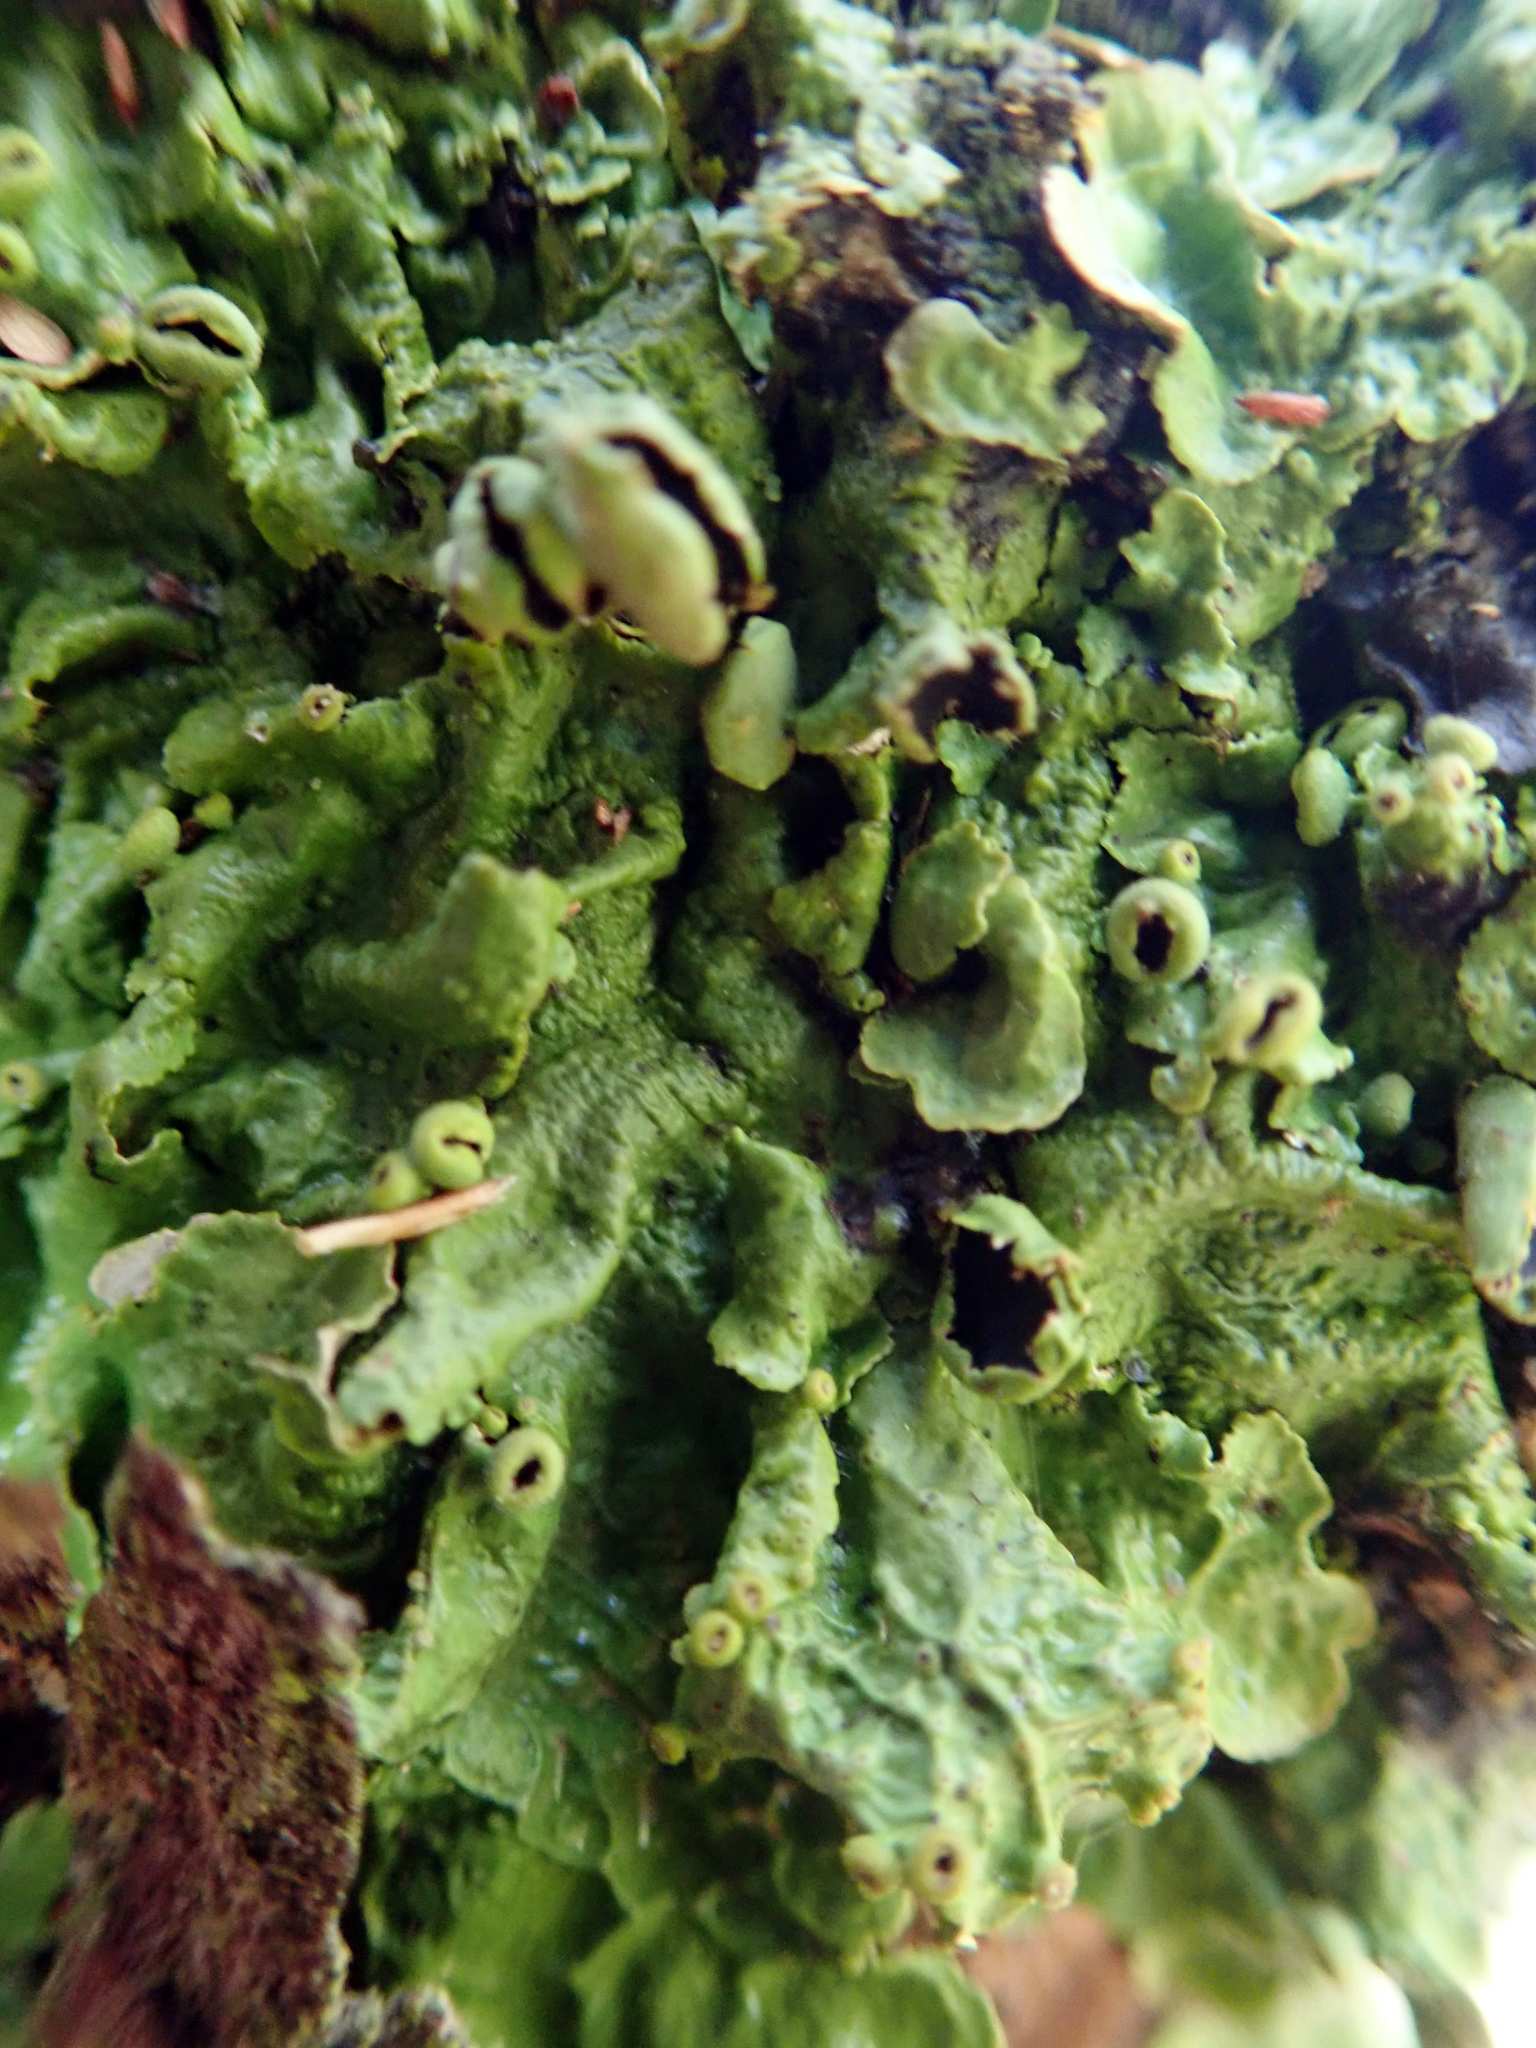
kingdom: Fungi
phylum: Ascomycota
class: Lecanoromycetes
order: Peltigerales
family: Lobariaceae
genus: Pseudocyphellaria
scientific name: Pseudocyphellaria montagnei
